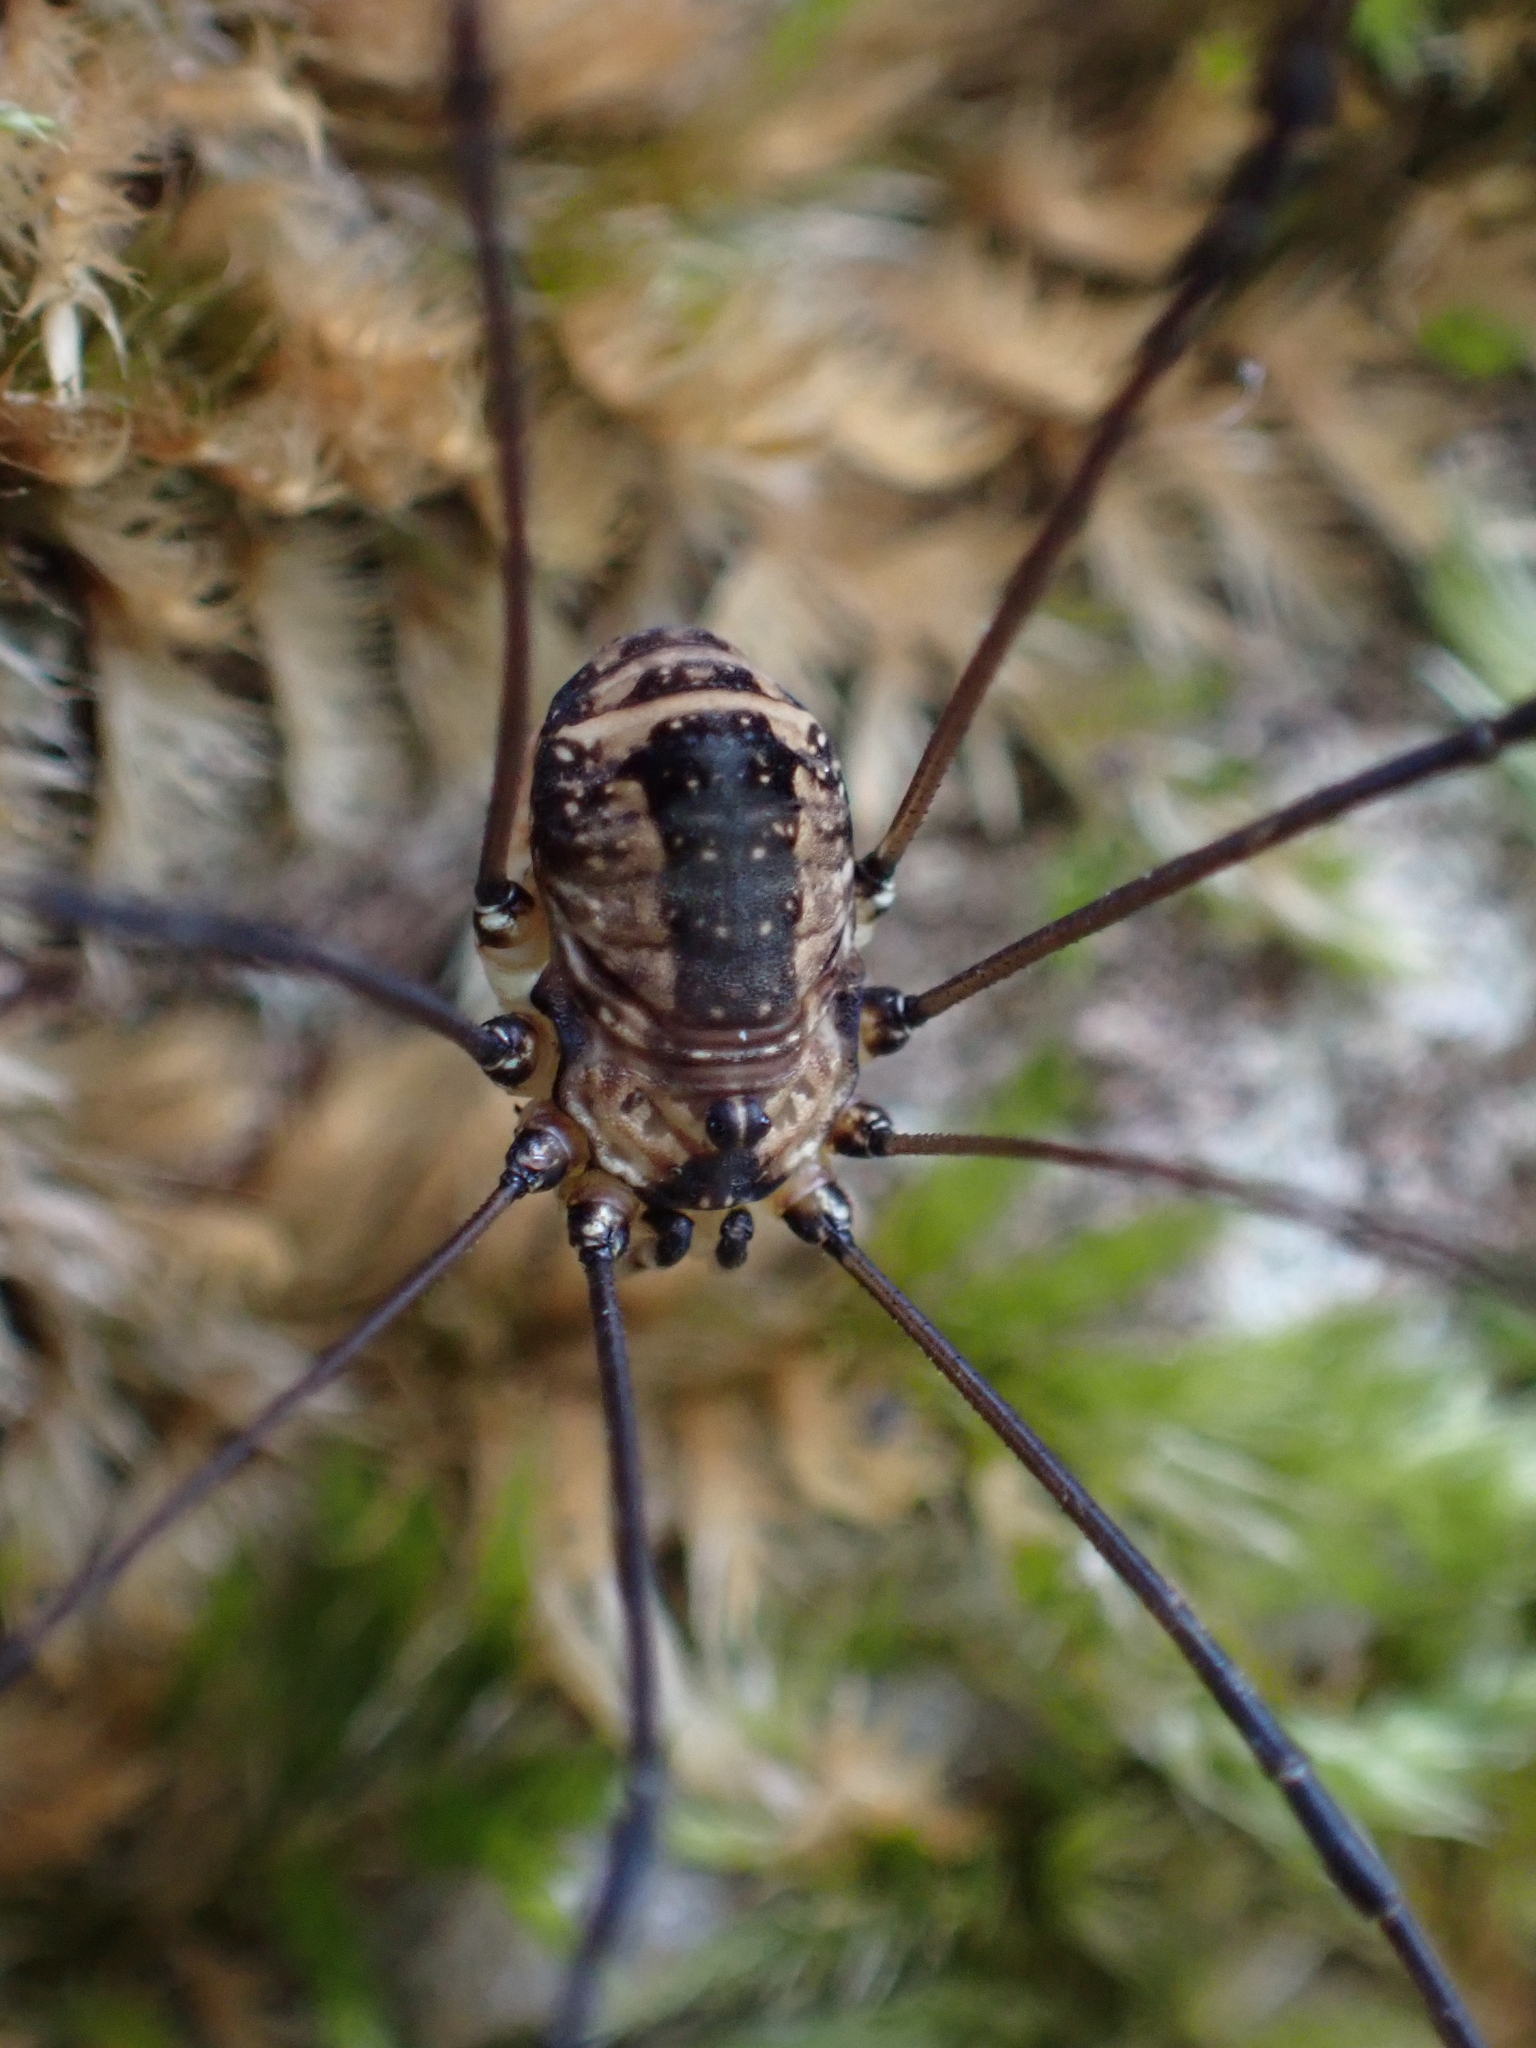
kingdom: Animalia
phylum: Arthropoda
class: Arachnida
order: Opiliones
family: Sclerosomatidae
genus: Leiobunum
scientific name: Leiobunum rotundum
